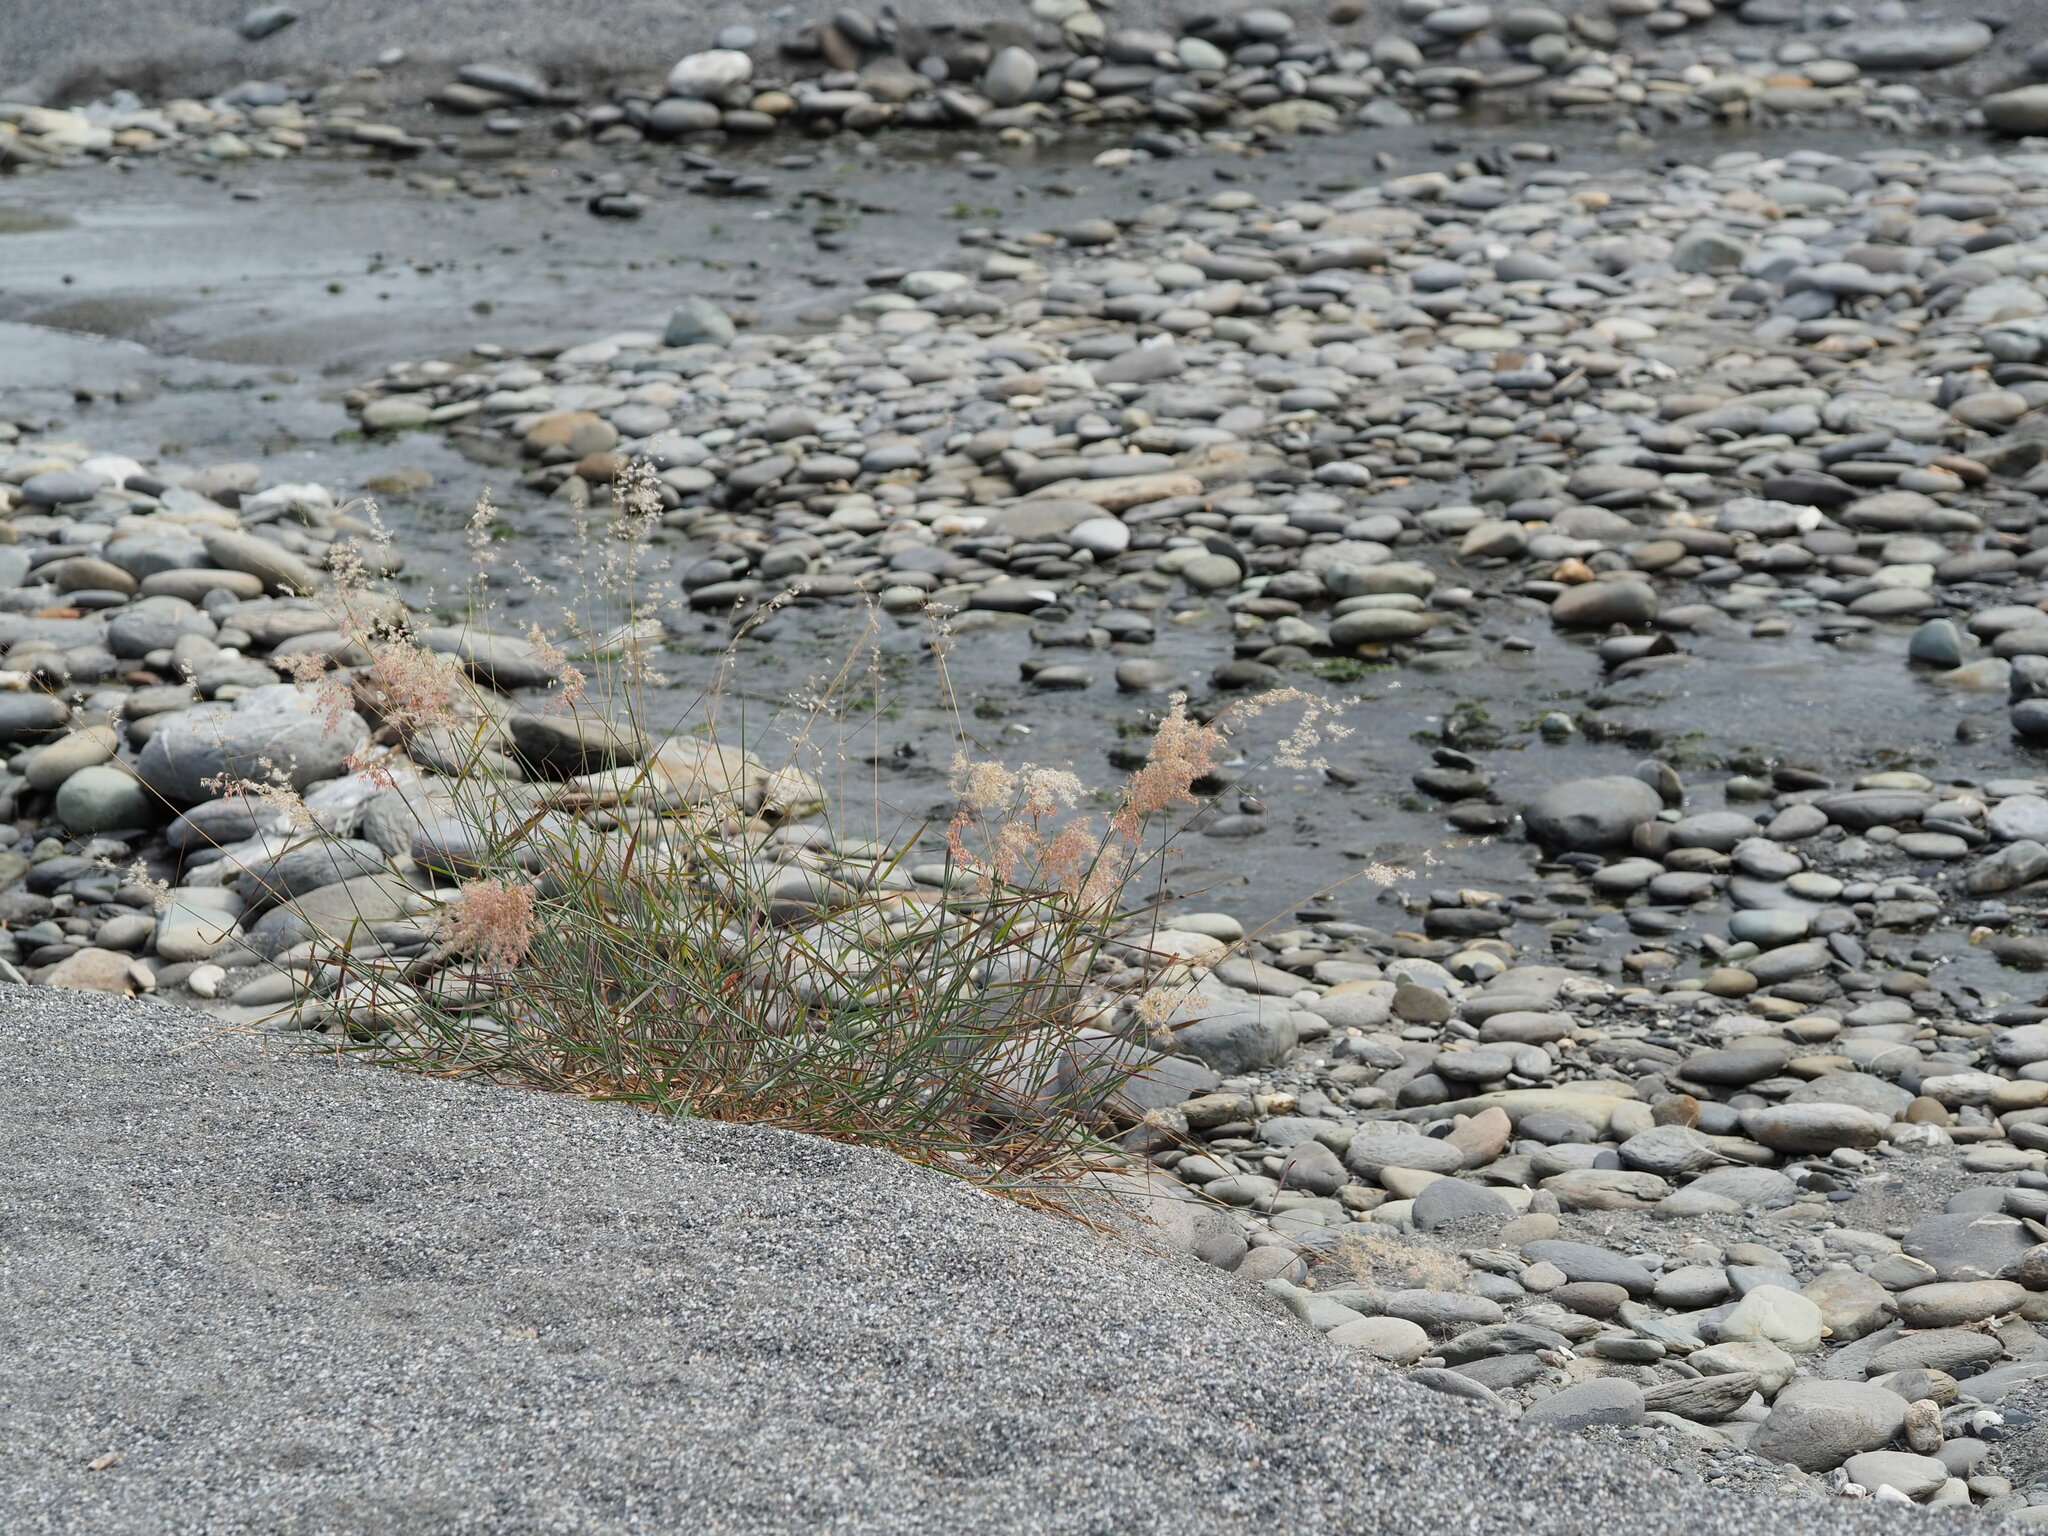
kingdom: Plantae
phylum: Tracheophyta
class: Liliopsida
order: Poales
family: Poaceae
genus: Melinis
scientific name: Melinis repens
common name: Rose natal grass
